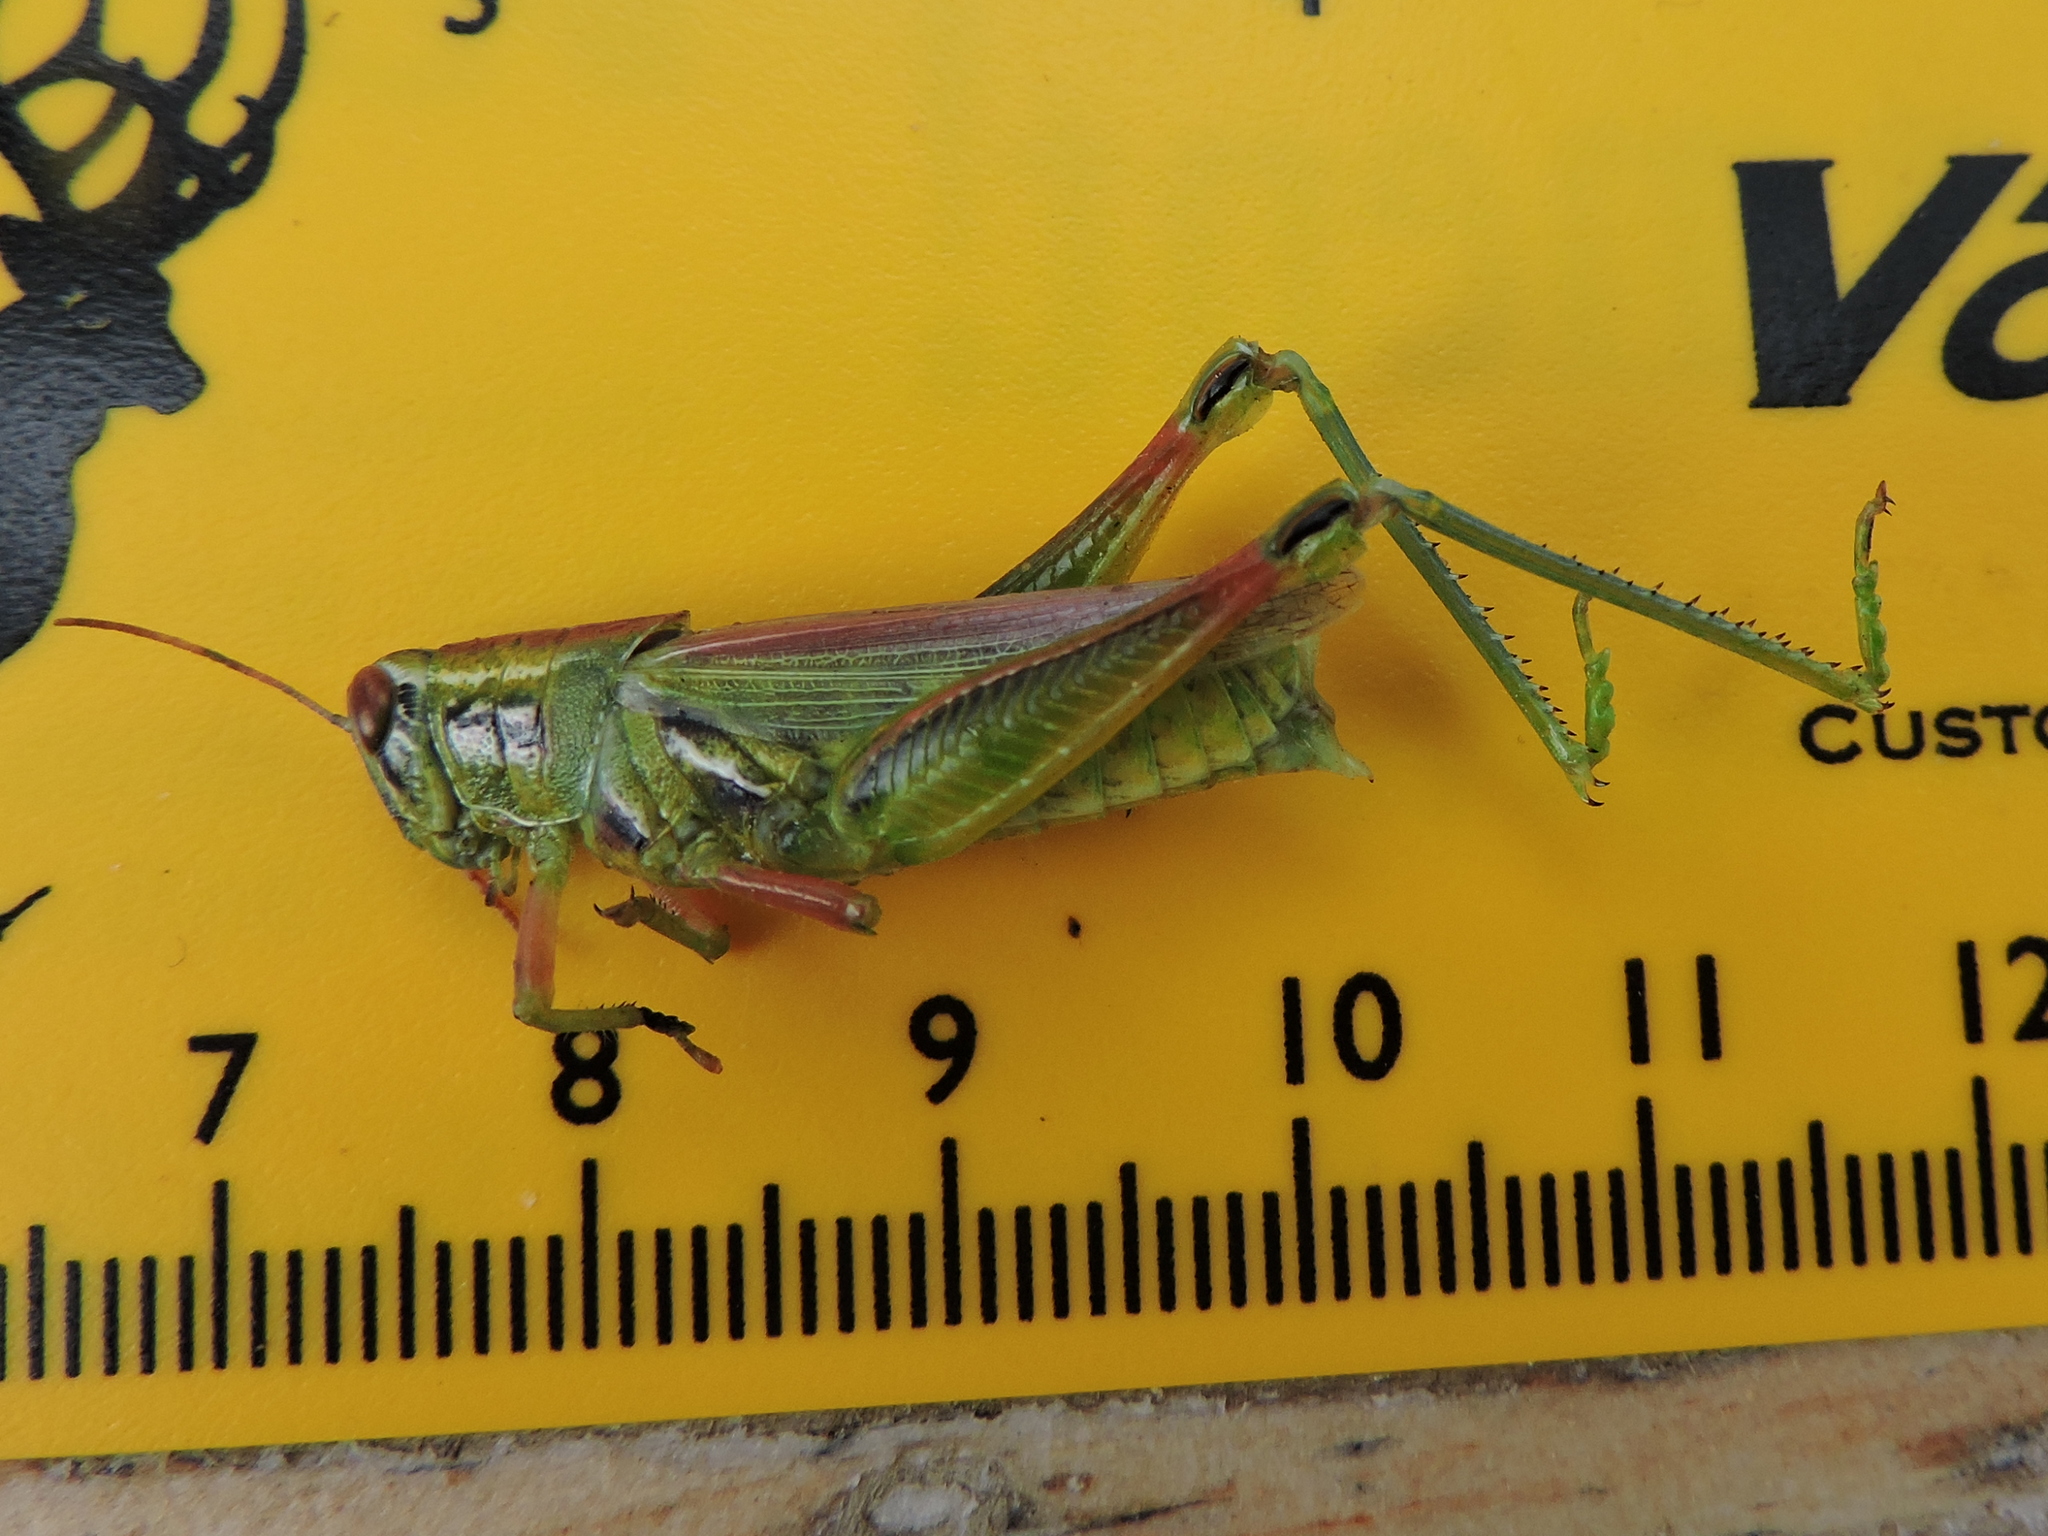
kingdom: Animalia
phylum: Arthropoda
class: Insecta
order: Orthoptera
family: Acrididae
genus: Hesperotettix
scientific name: Hesperotettix viridis
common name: Meadow purple-striped grasshopper
